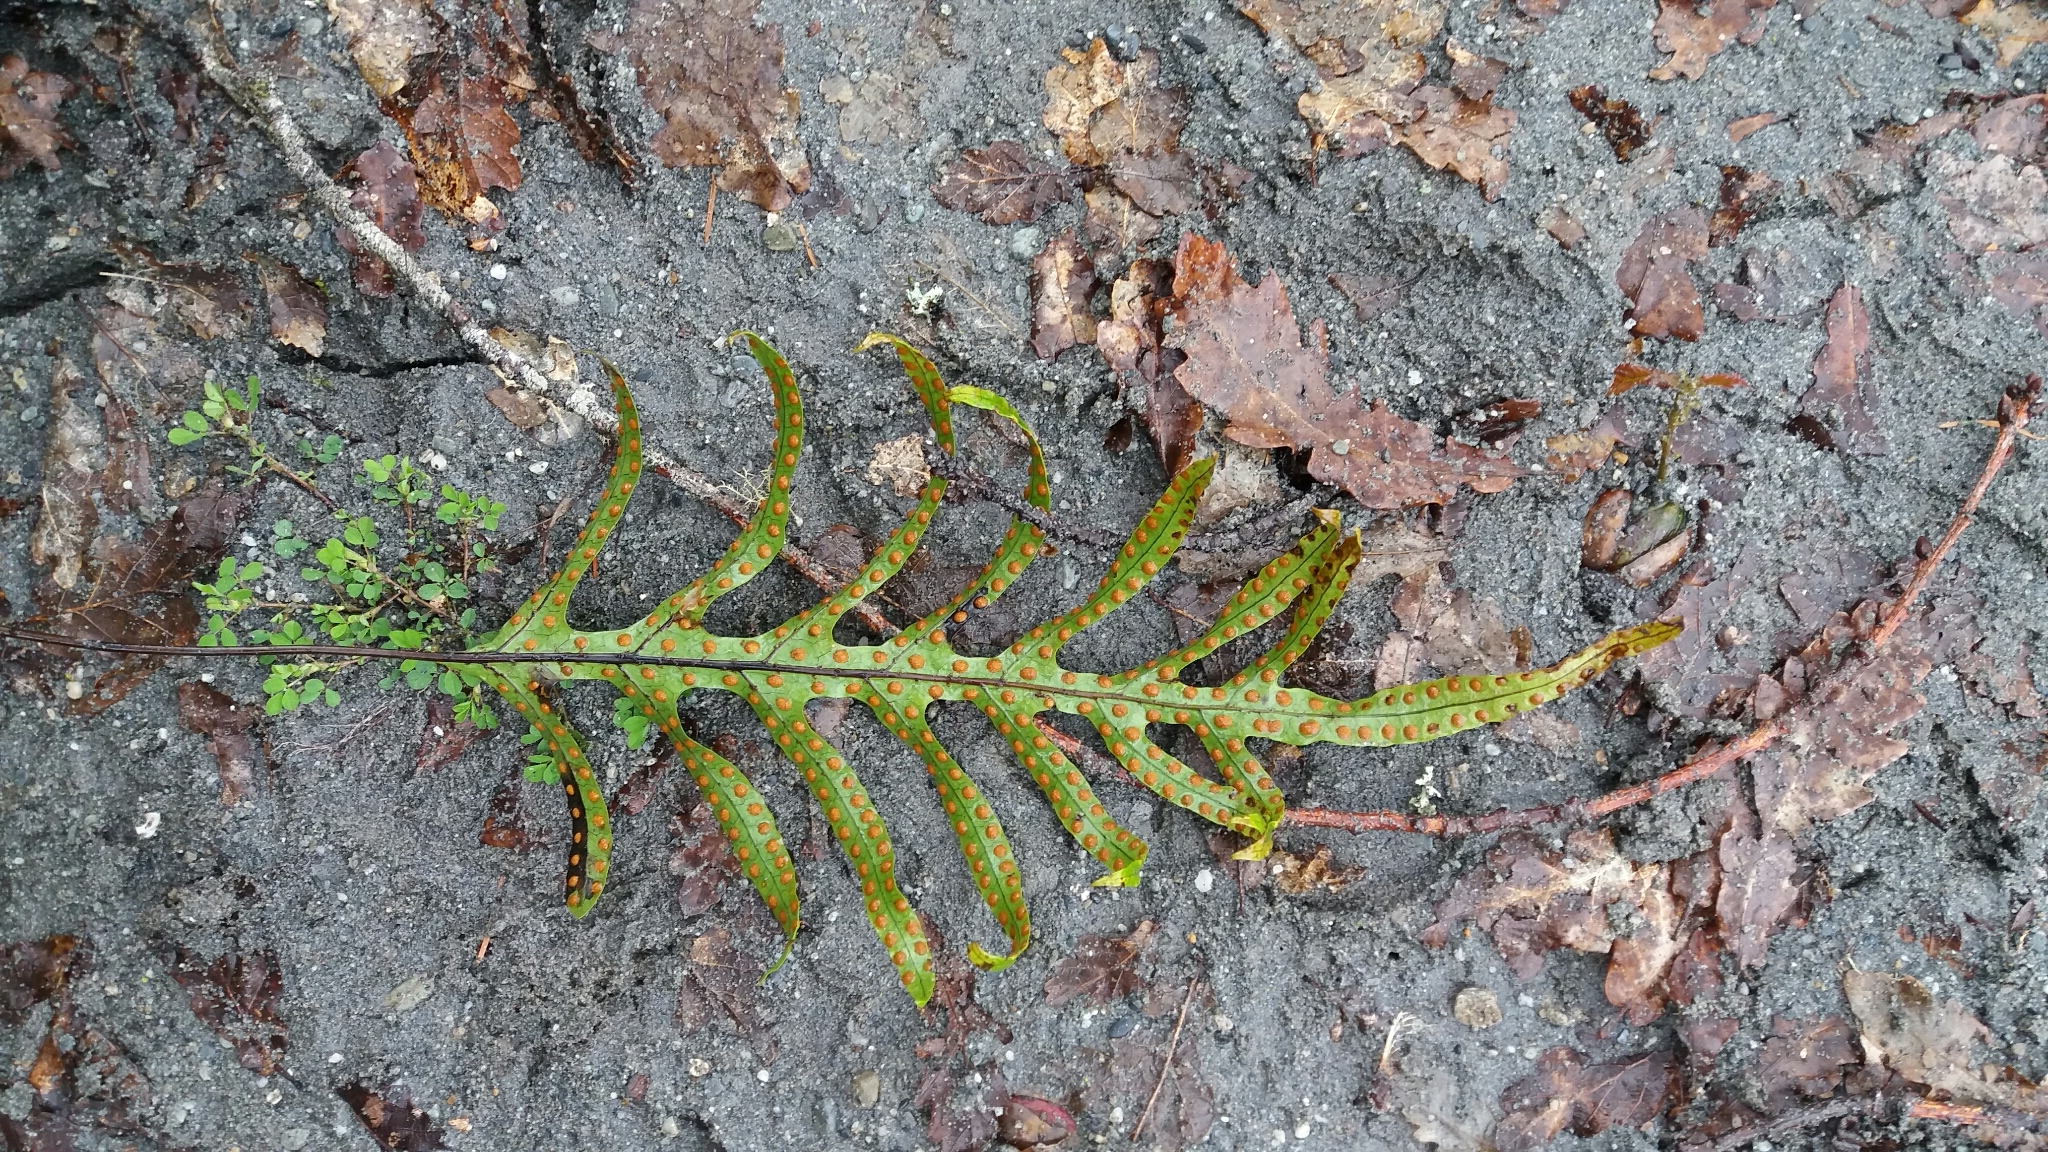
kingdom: Plantae
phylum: Tracheophyta
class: Polypodiopsida
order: Polypodiales
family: Polypodiaceae
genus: Lecanopteris
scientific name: Lecanopteris pustulata
